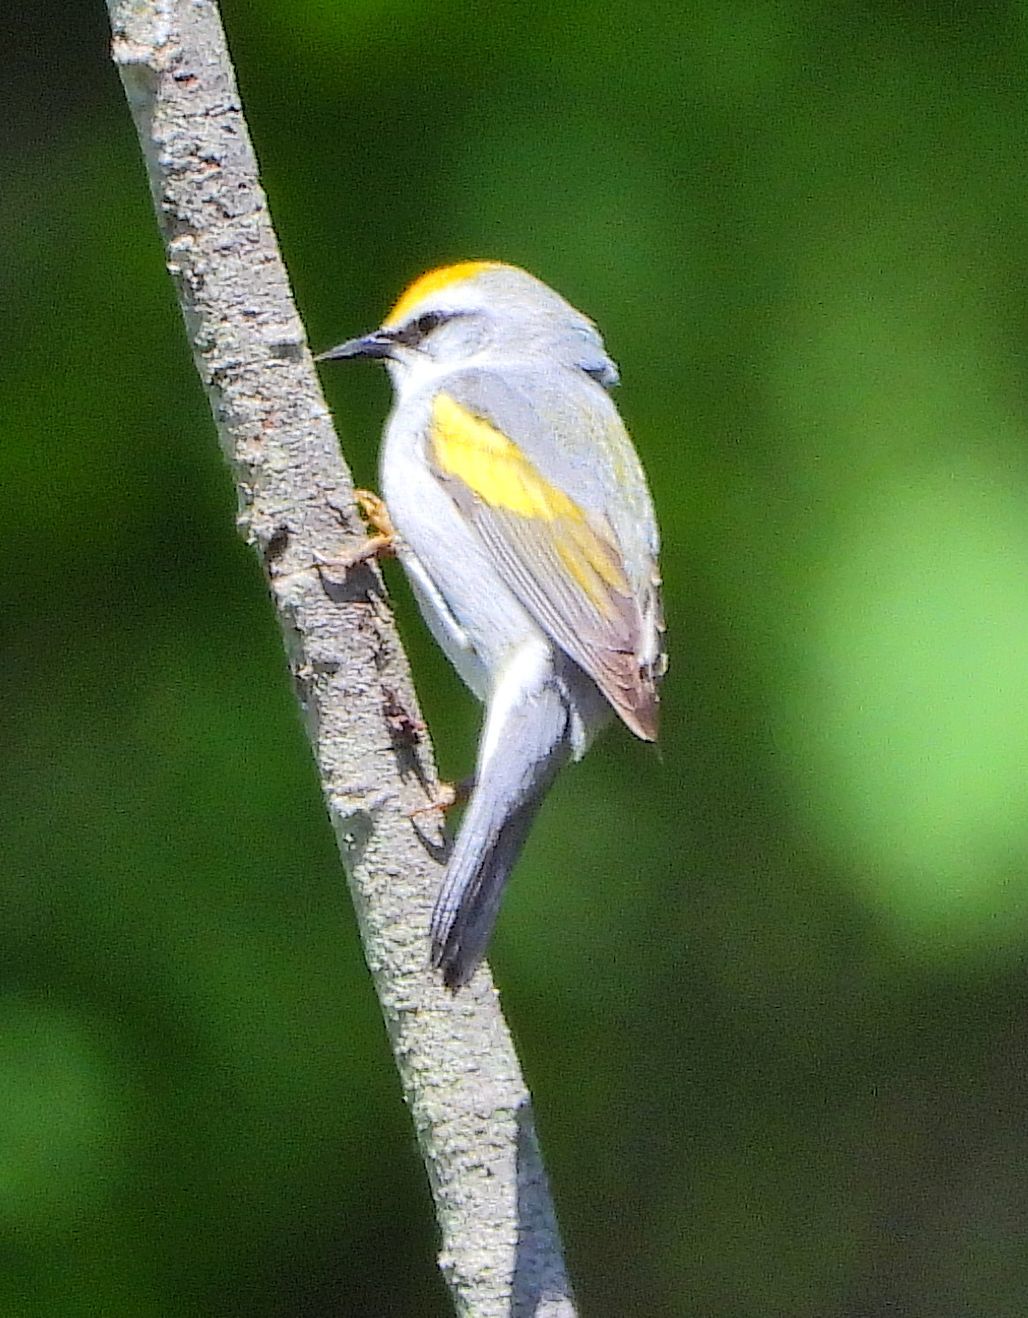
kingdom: Animalia
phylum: Chordata
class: Aves
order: Passeriformes
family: Parulidae
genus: Vermivora
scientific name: Vermivora
